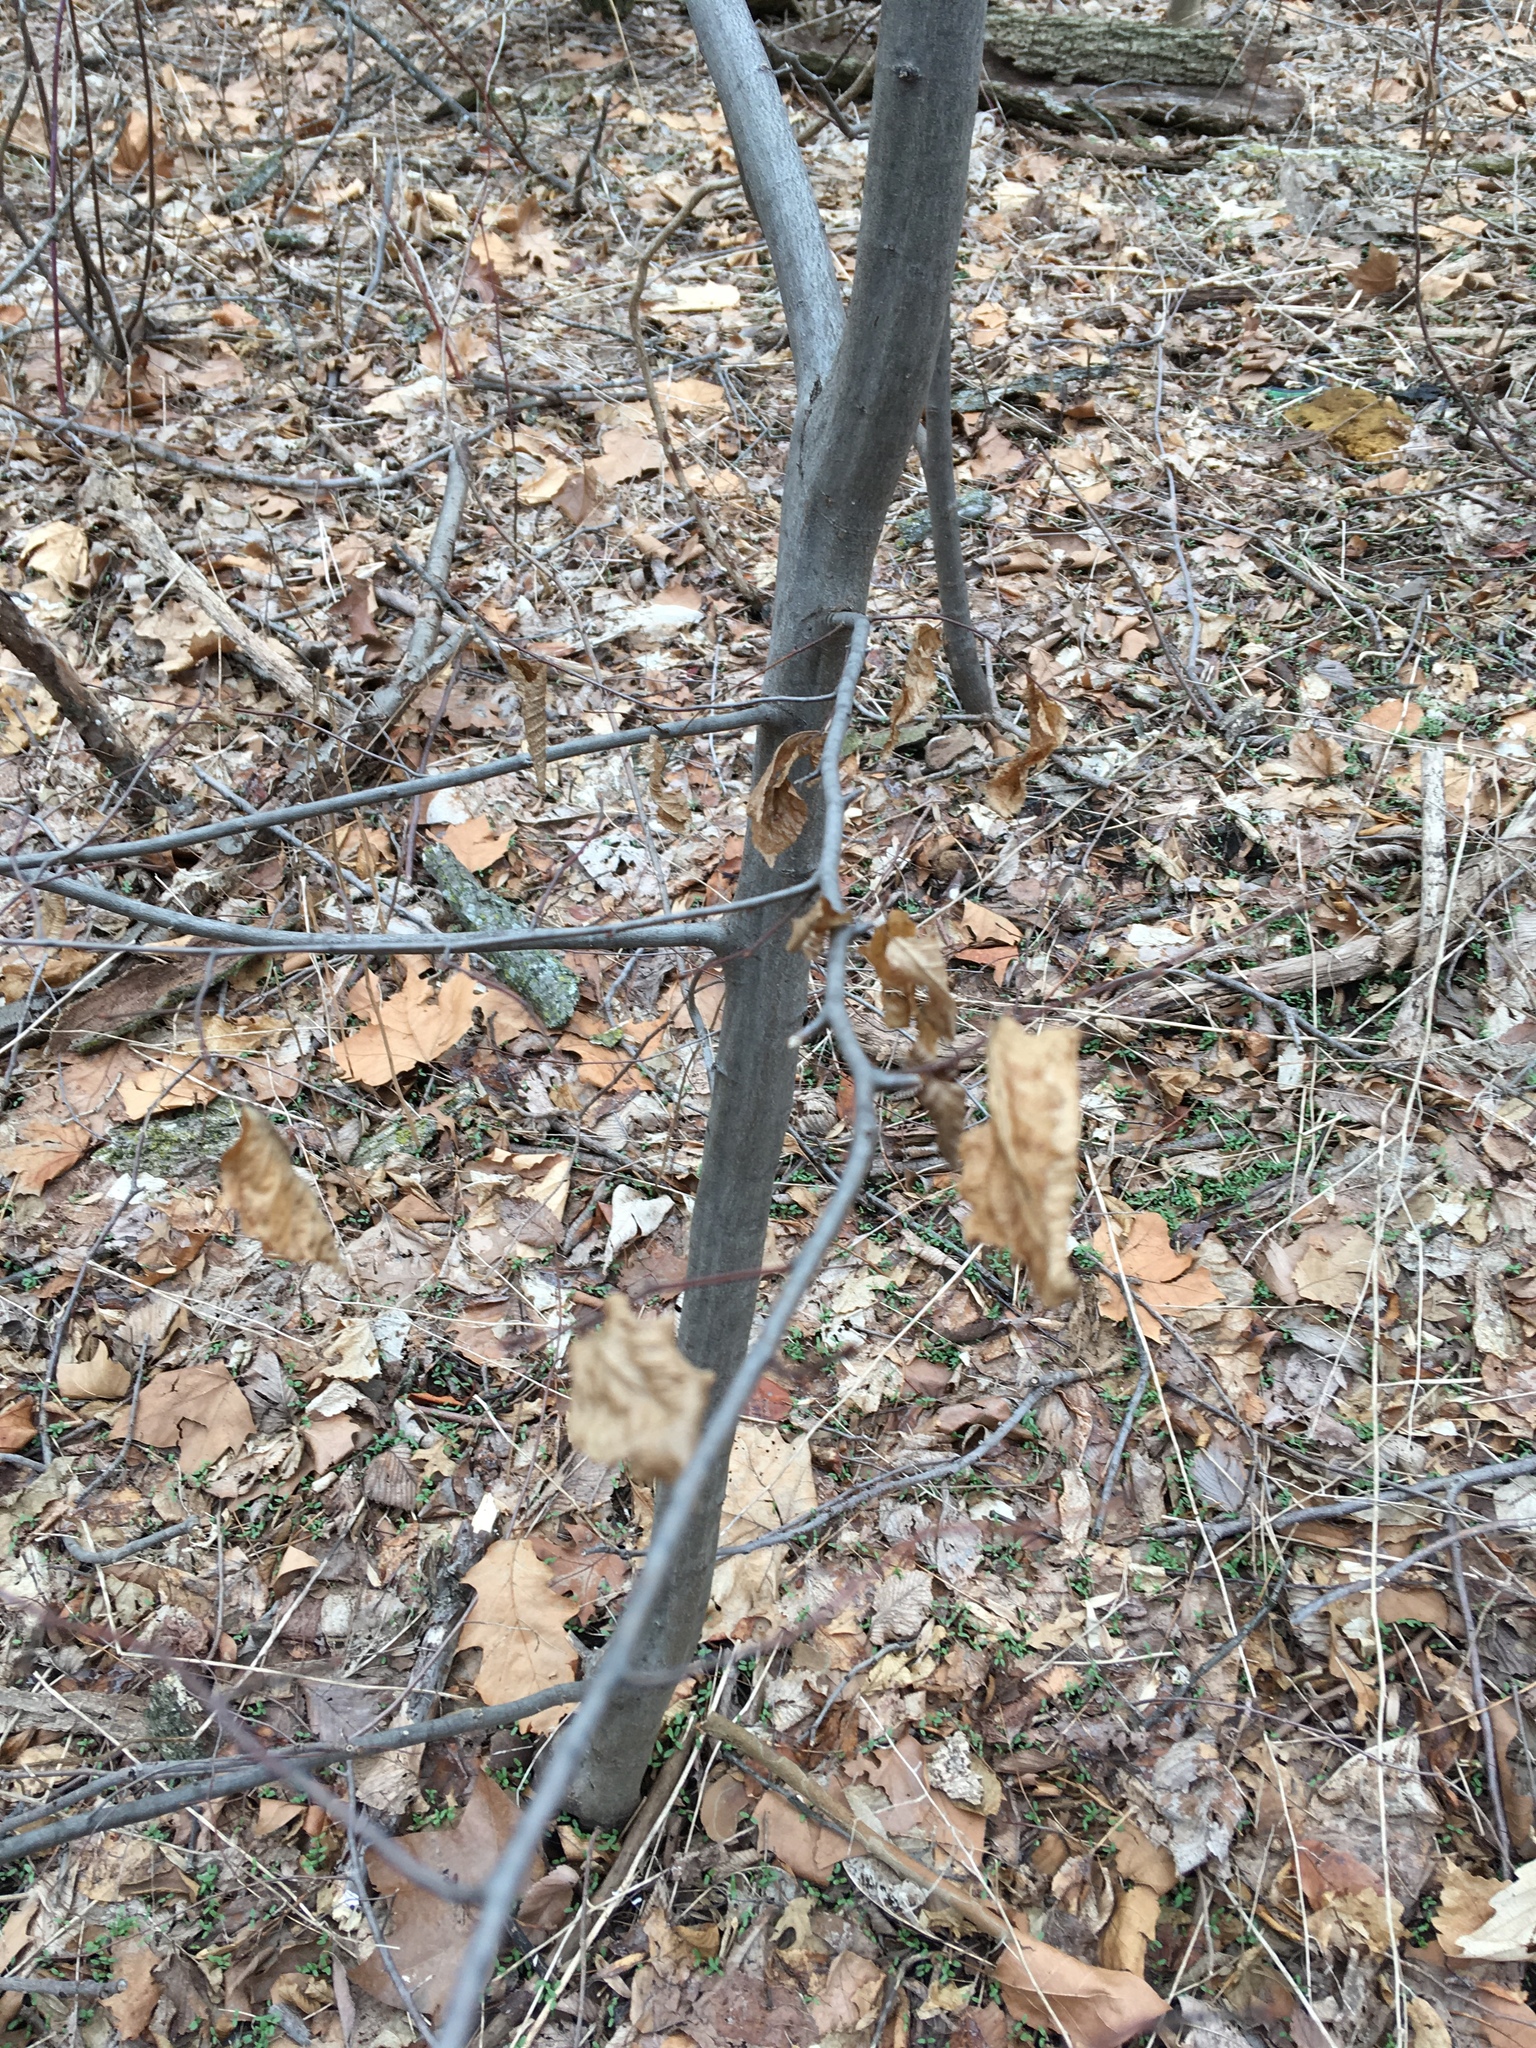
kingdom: Plantae
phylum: Tracheophyta
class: Magnoliopsida
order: Fagales
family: Betulaceae
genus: Carpinus
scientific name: Carpinus caroliniana
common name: American hornbeam
